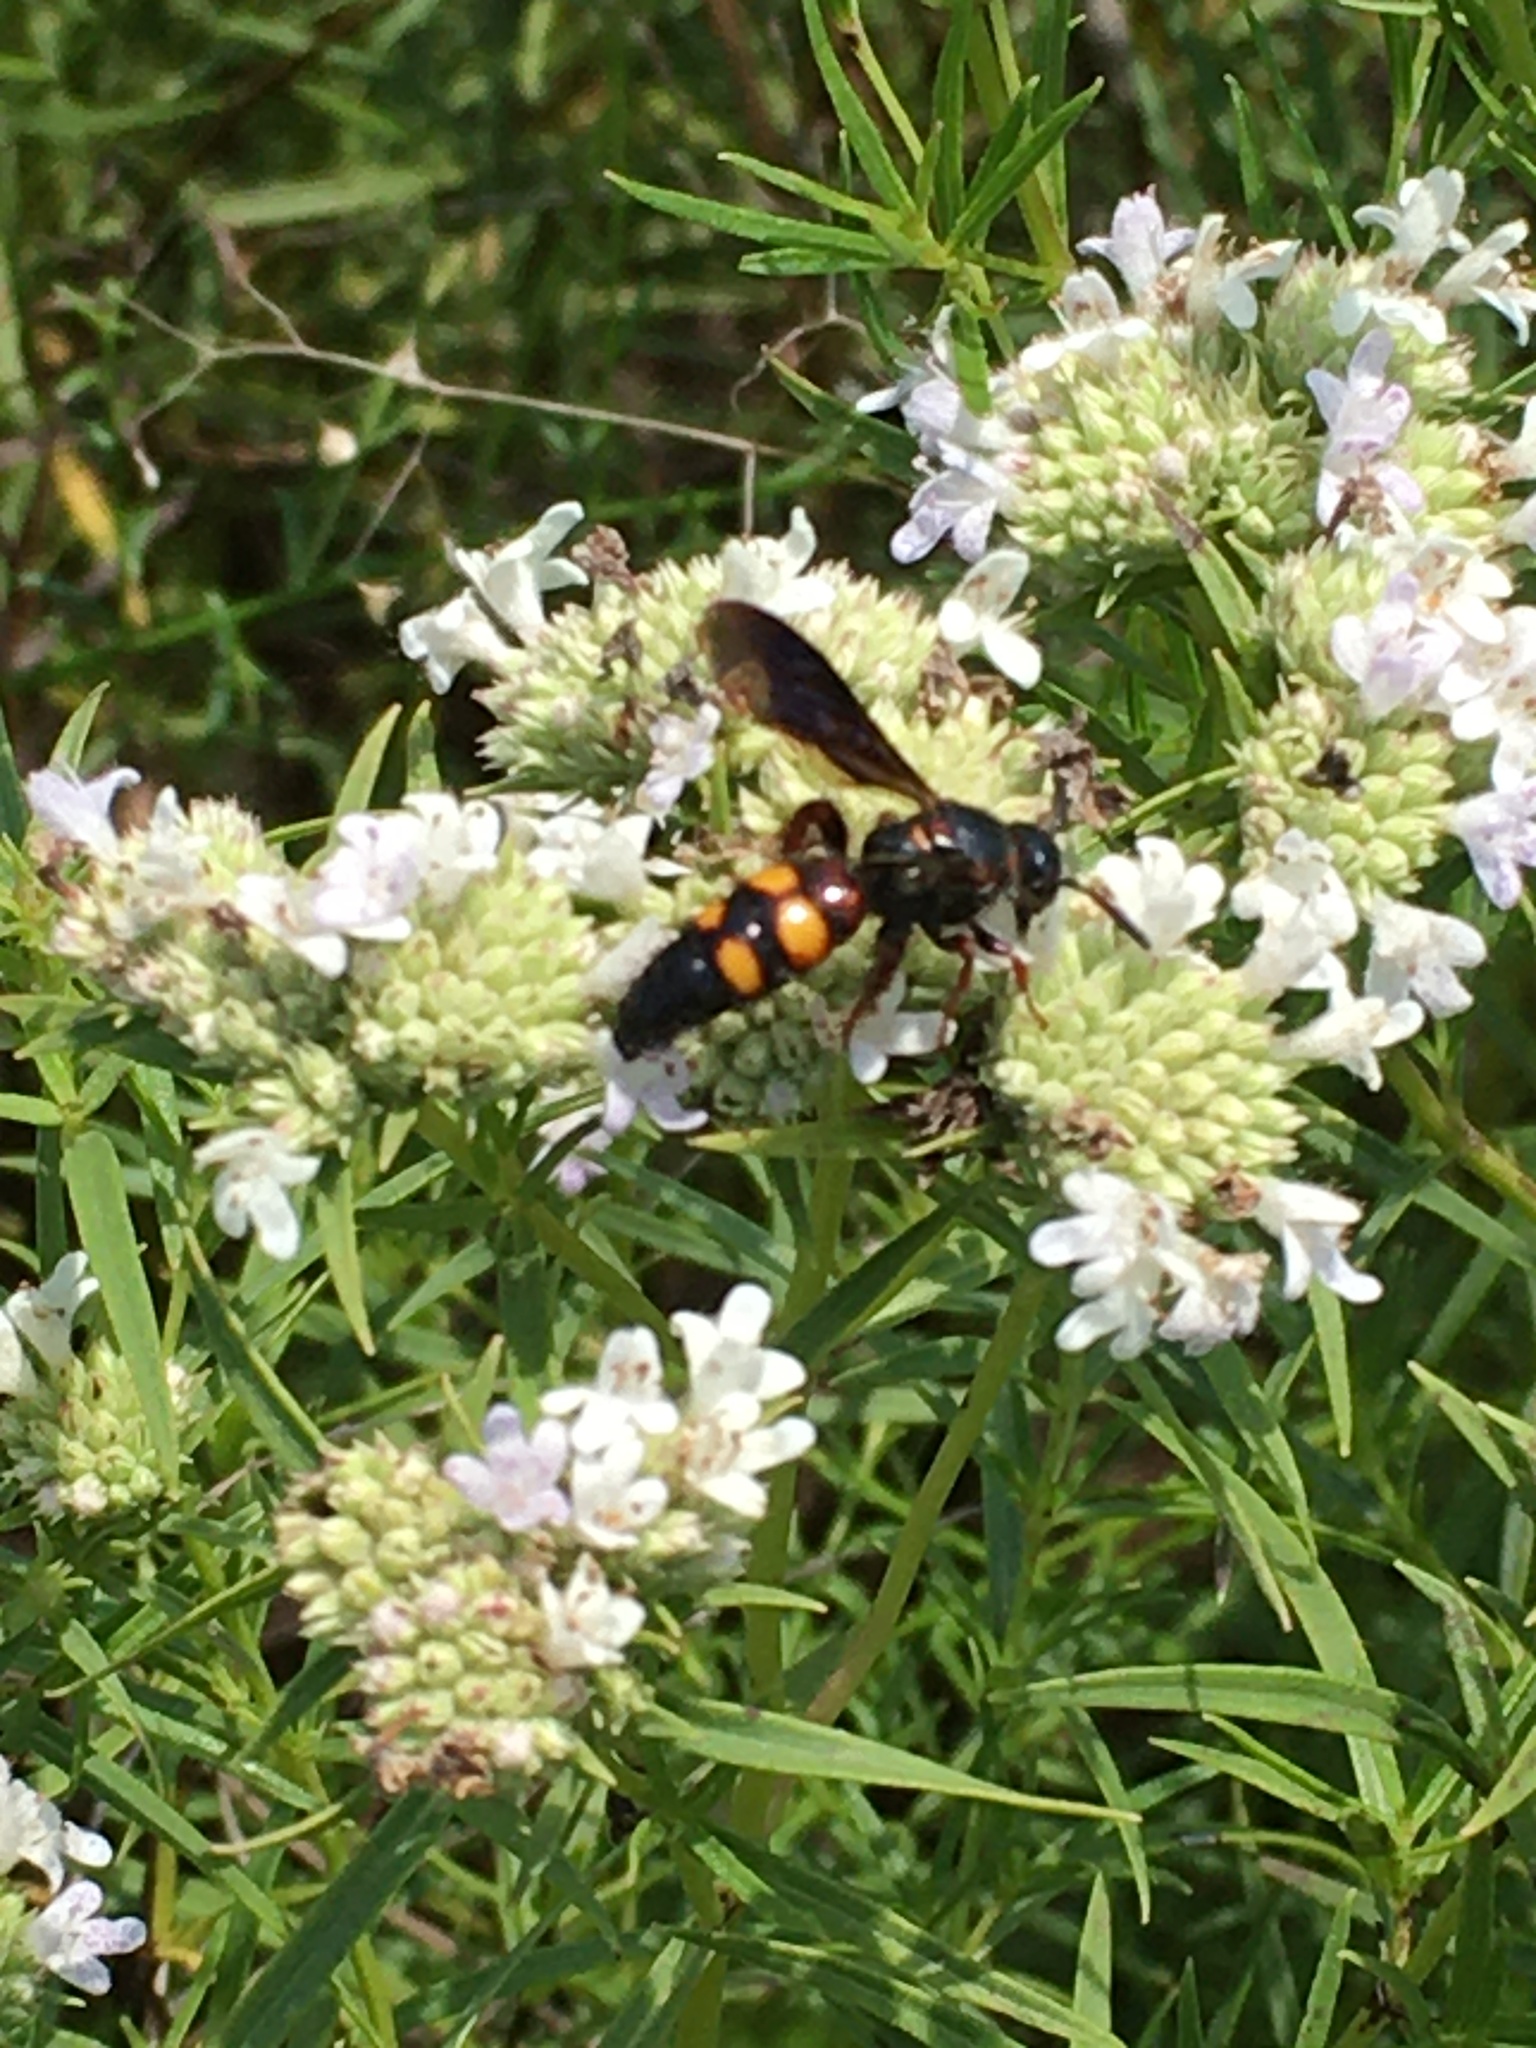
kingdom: Plantae
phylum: Tracheophyta
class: Magnoliopsida
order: Lamiales
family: Lamiaceae
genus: Pycnanthemum
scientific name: Pycnanthemum tenuifolium
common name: Narrow-leaf mountain-mint
